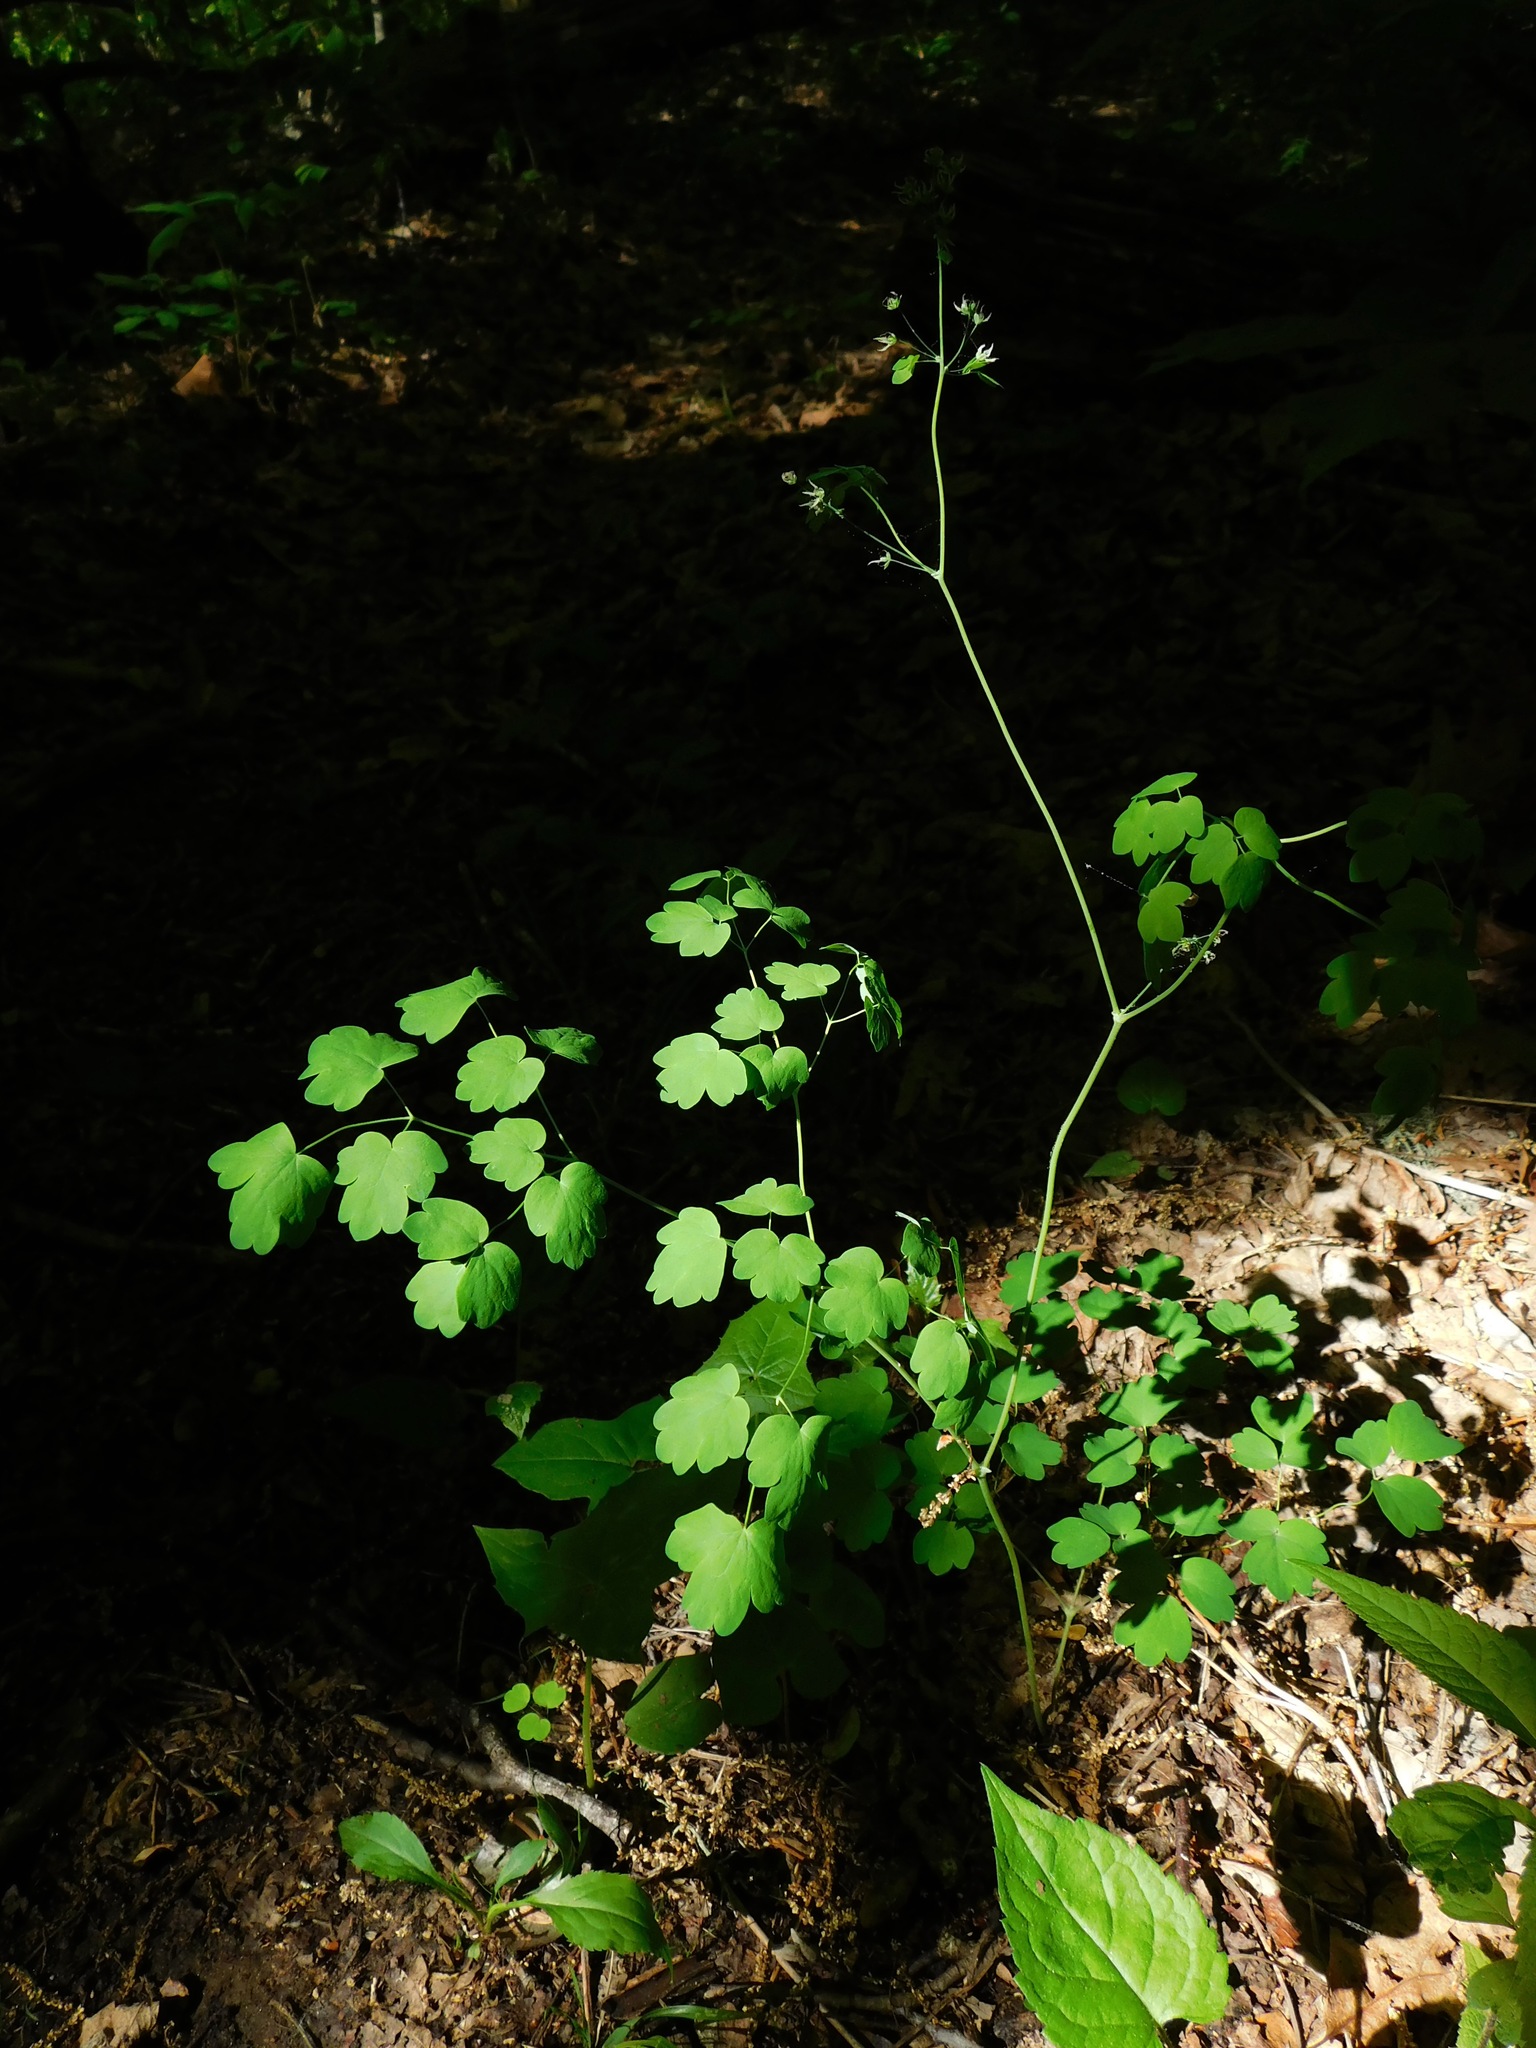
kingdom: Plantae
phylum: Tracheophyta
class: Magnoliopsida
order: Ranunculales
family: Ranunculaceae
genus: Thalictrum
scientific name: Thalictrum coriaceum
